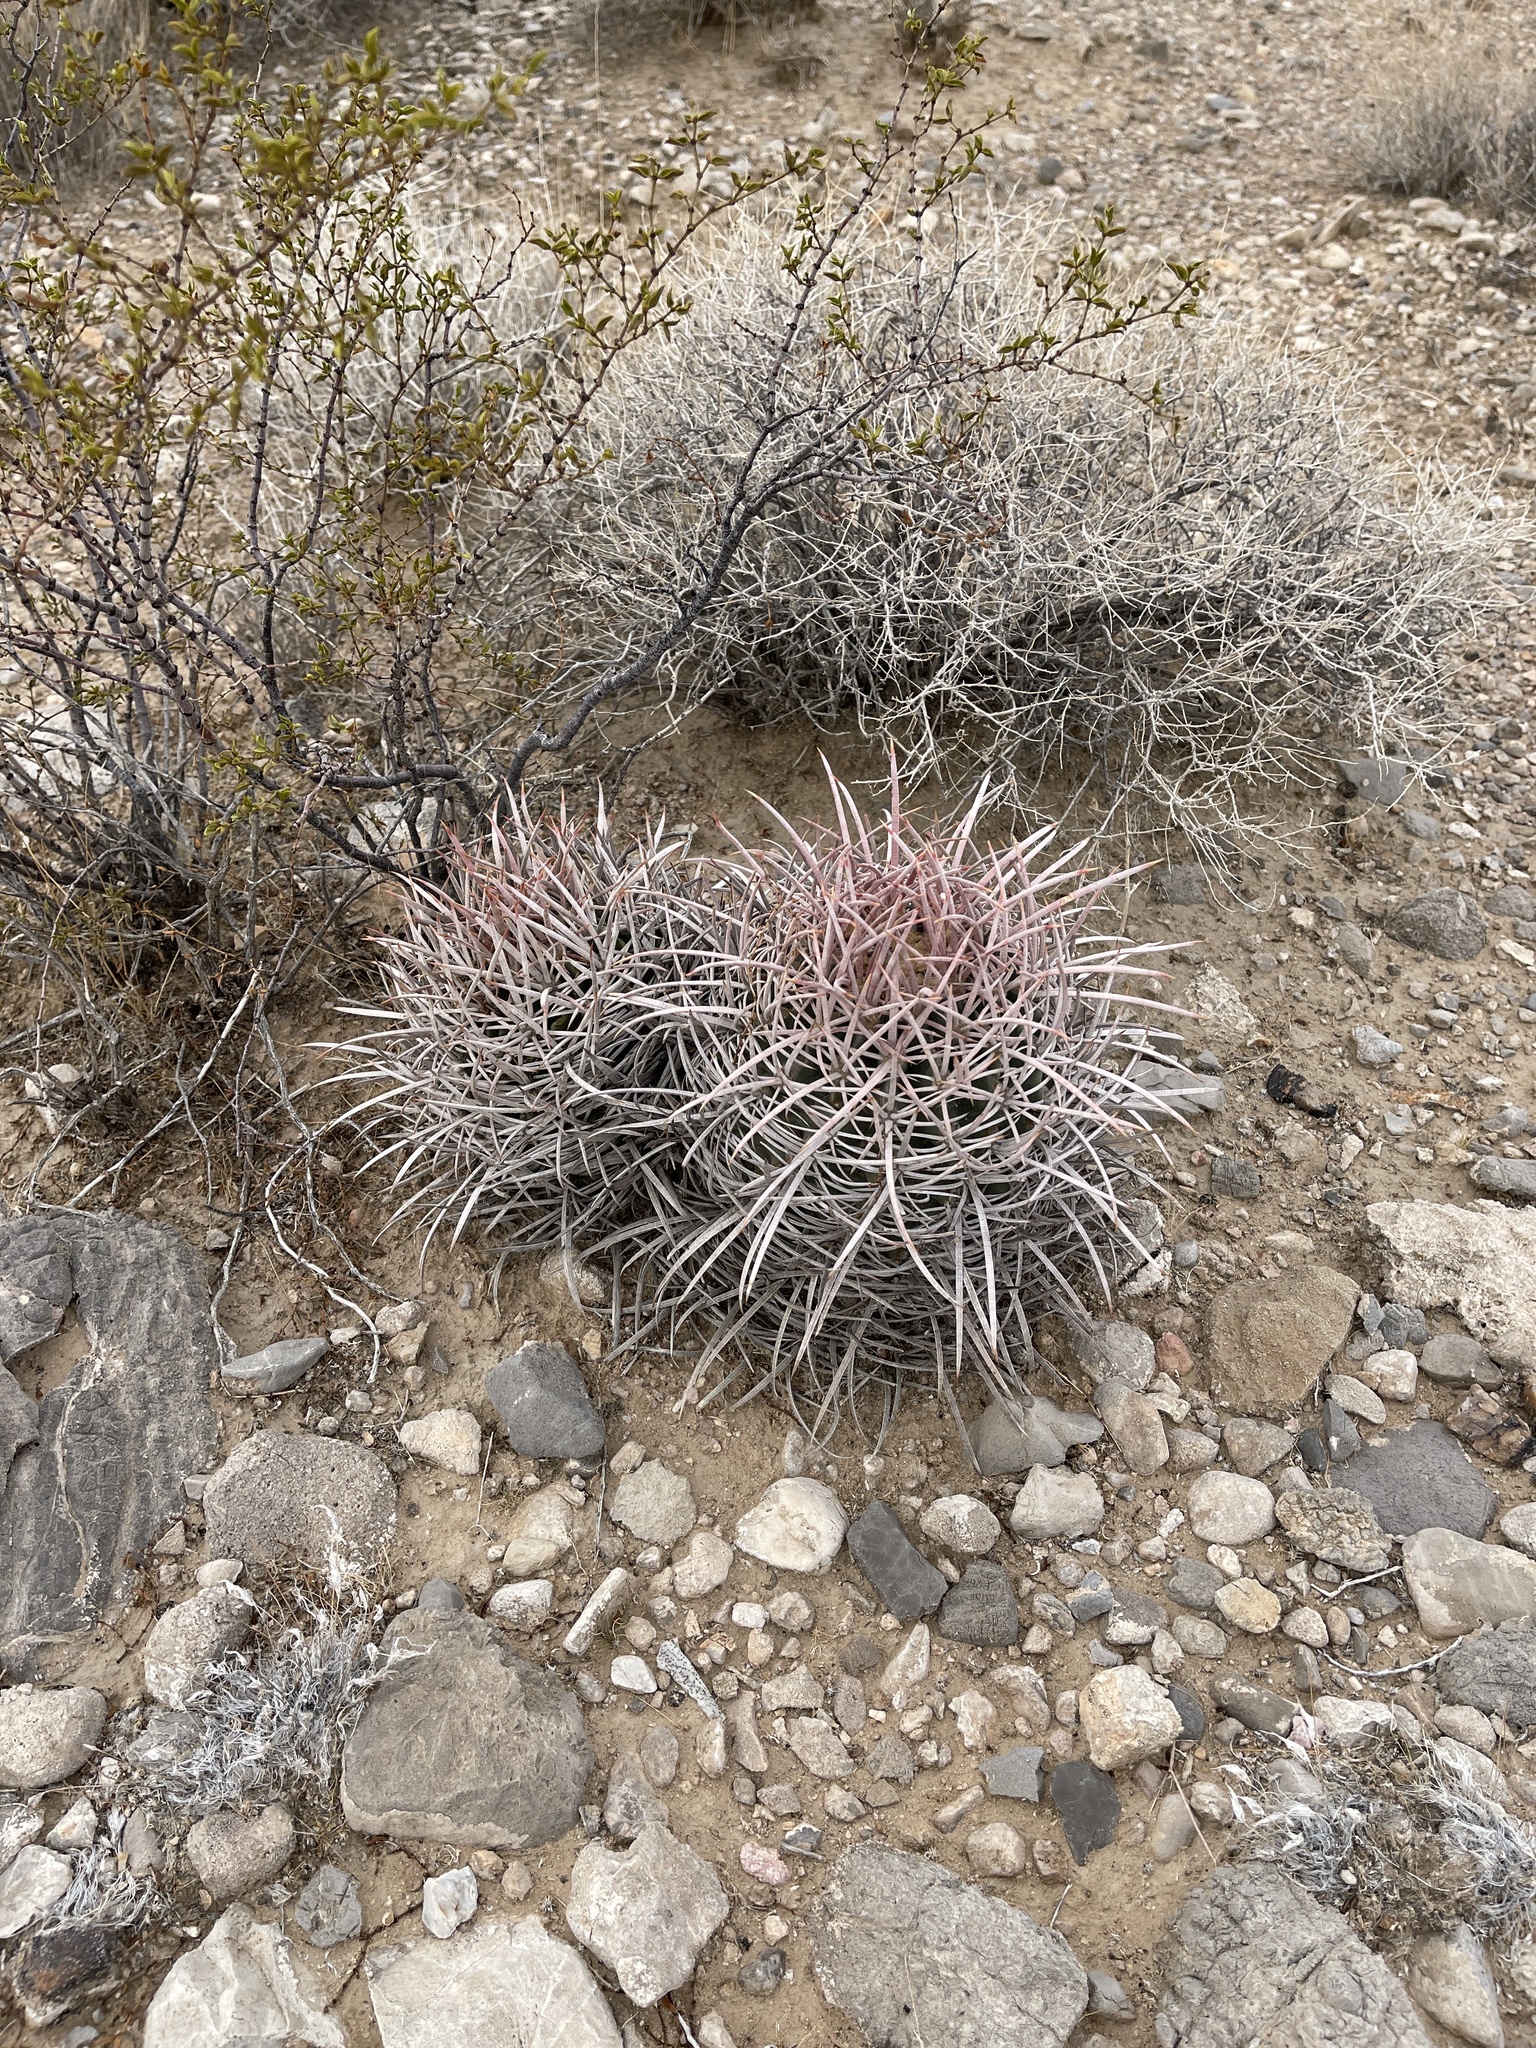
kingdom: Plantae
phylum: Tracheophyta
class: Magnoliopsida
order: Caryophyllales
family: Cactaceae
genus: Echinocactus
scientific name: Echinocactus polycephalus
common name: Cottontop cactus
